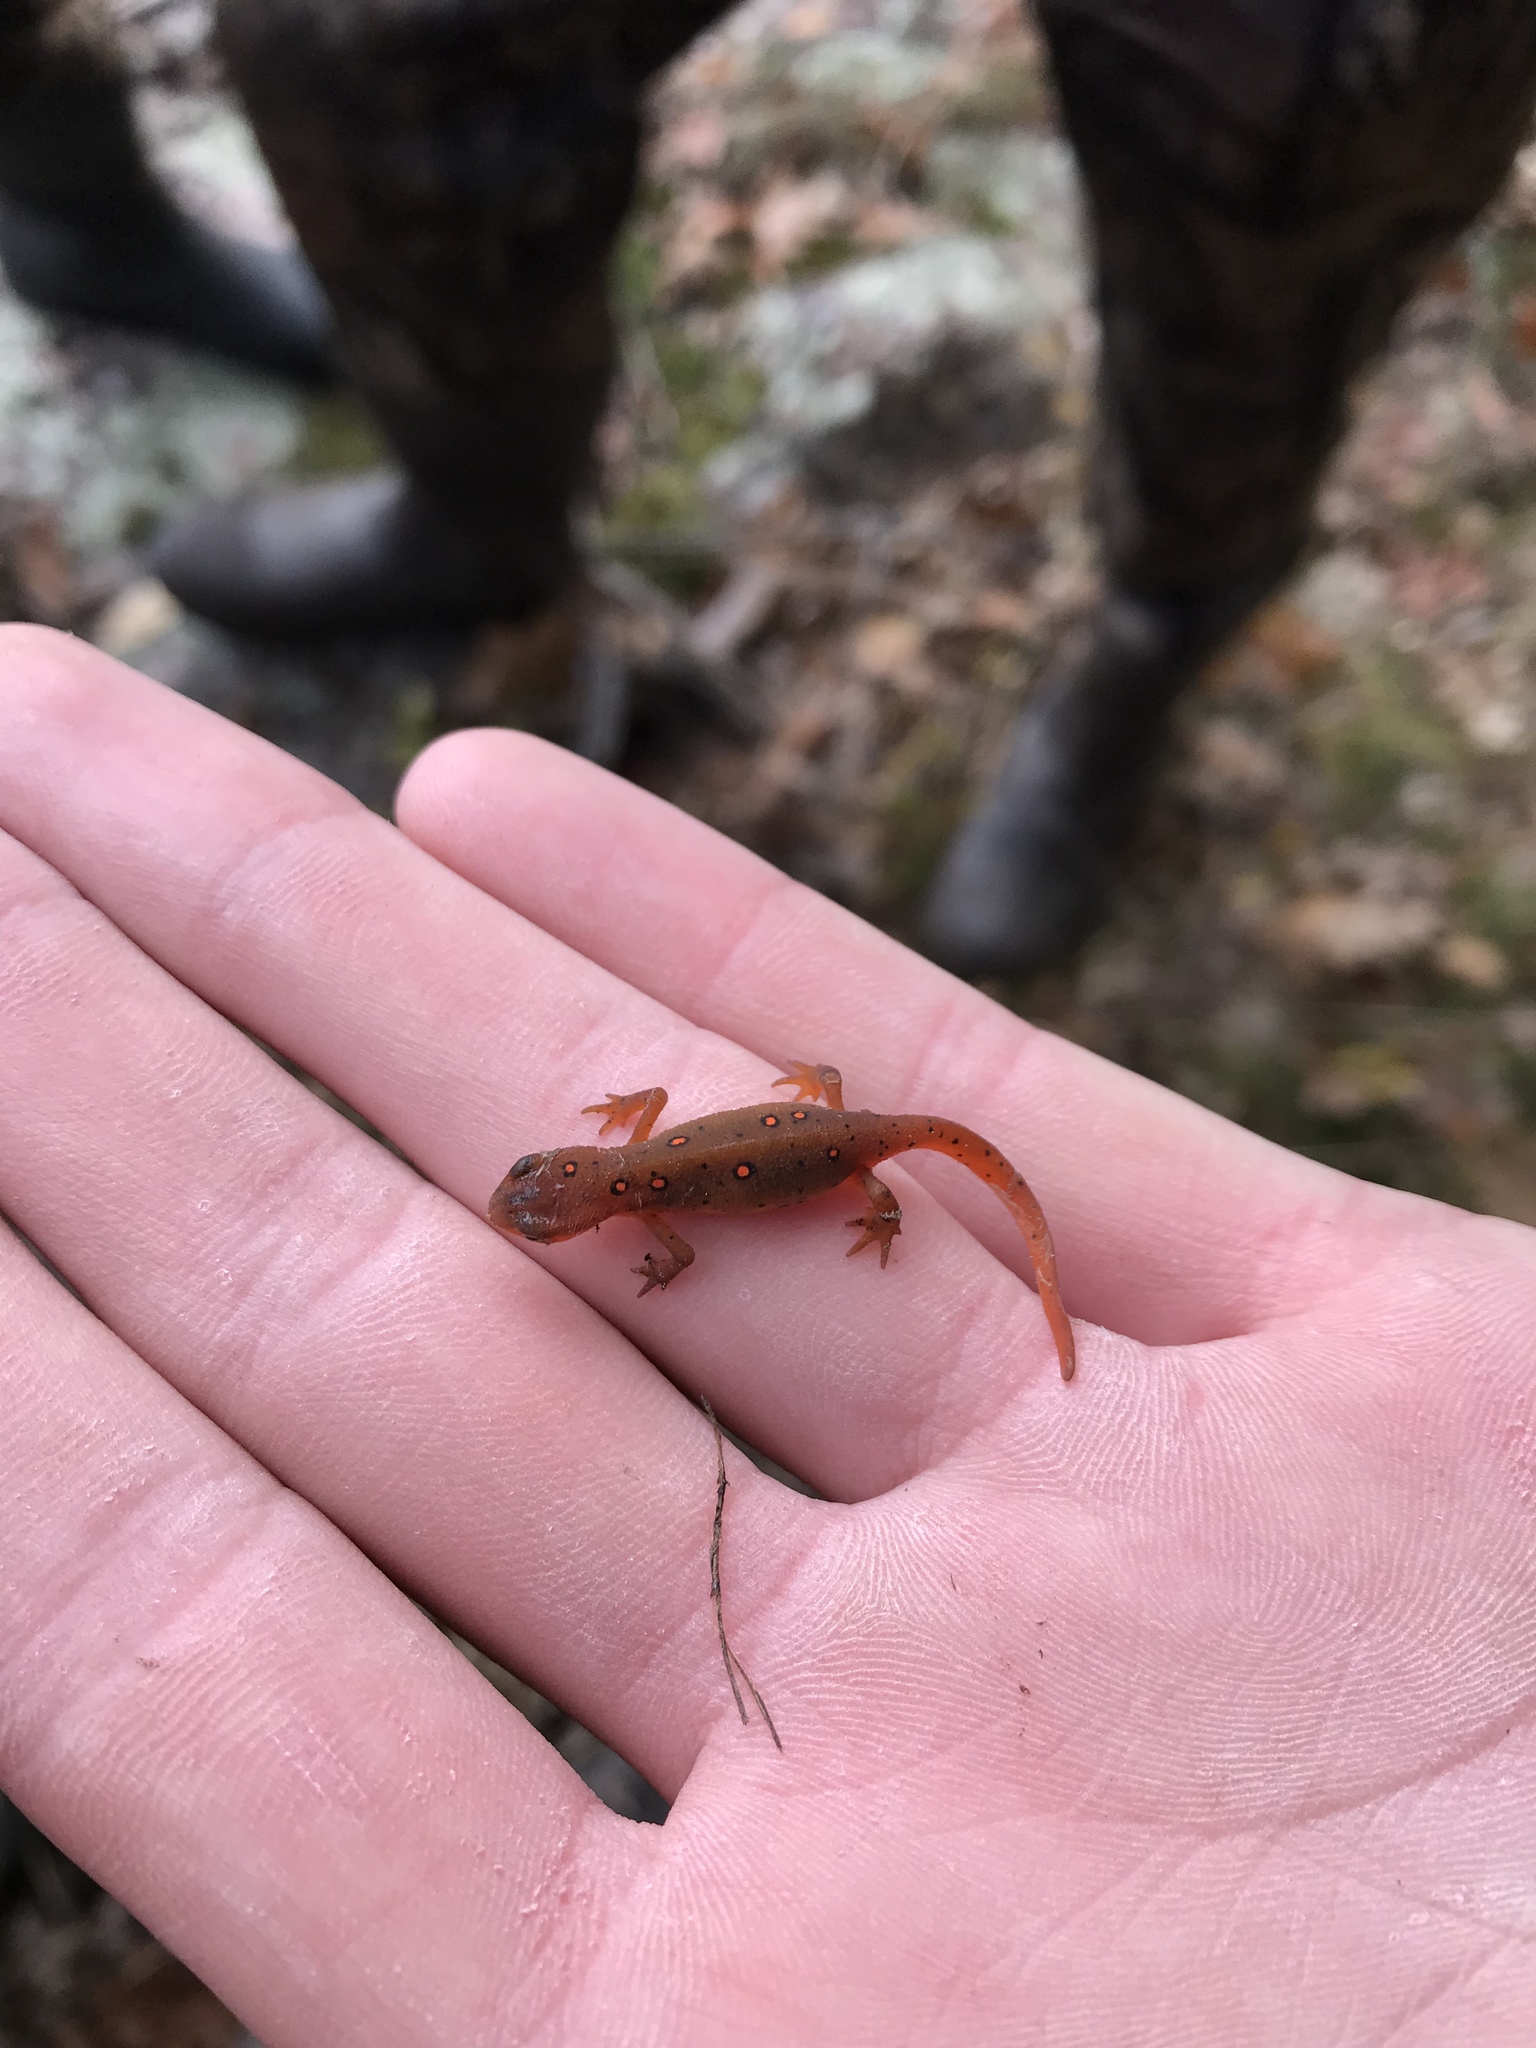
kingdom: Animalia
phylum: Chordata
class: Amphibia
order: Caudata
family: Salamandridae
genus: Notophthalmus
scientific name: Notophthalmus viridescens
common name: Eastern newt
